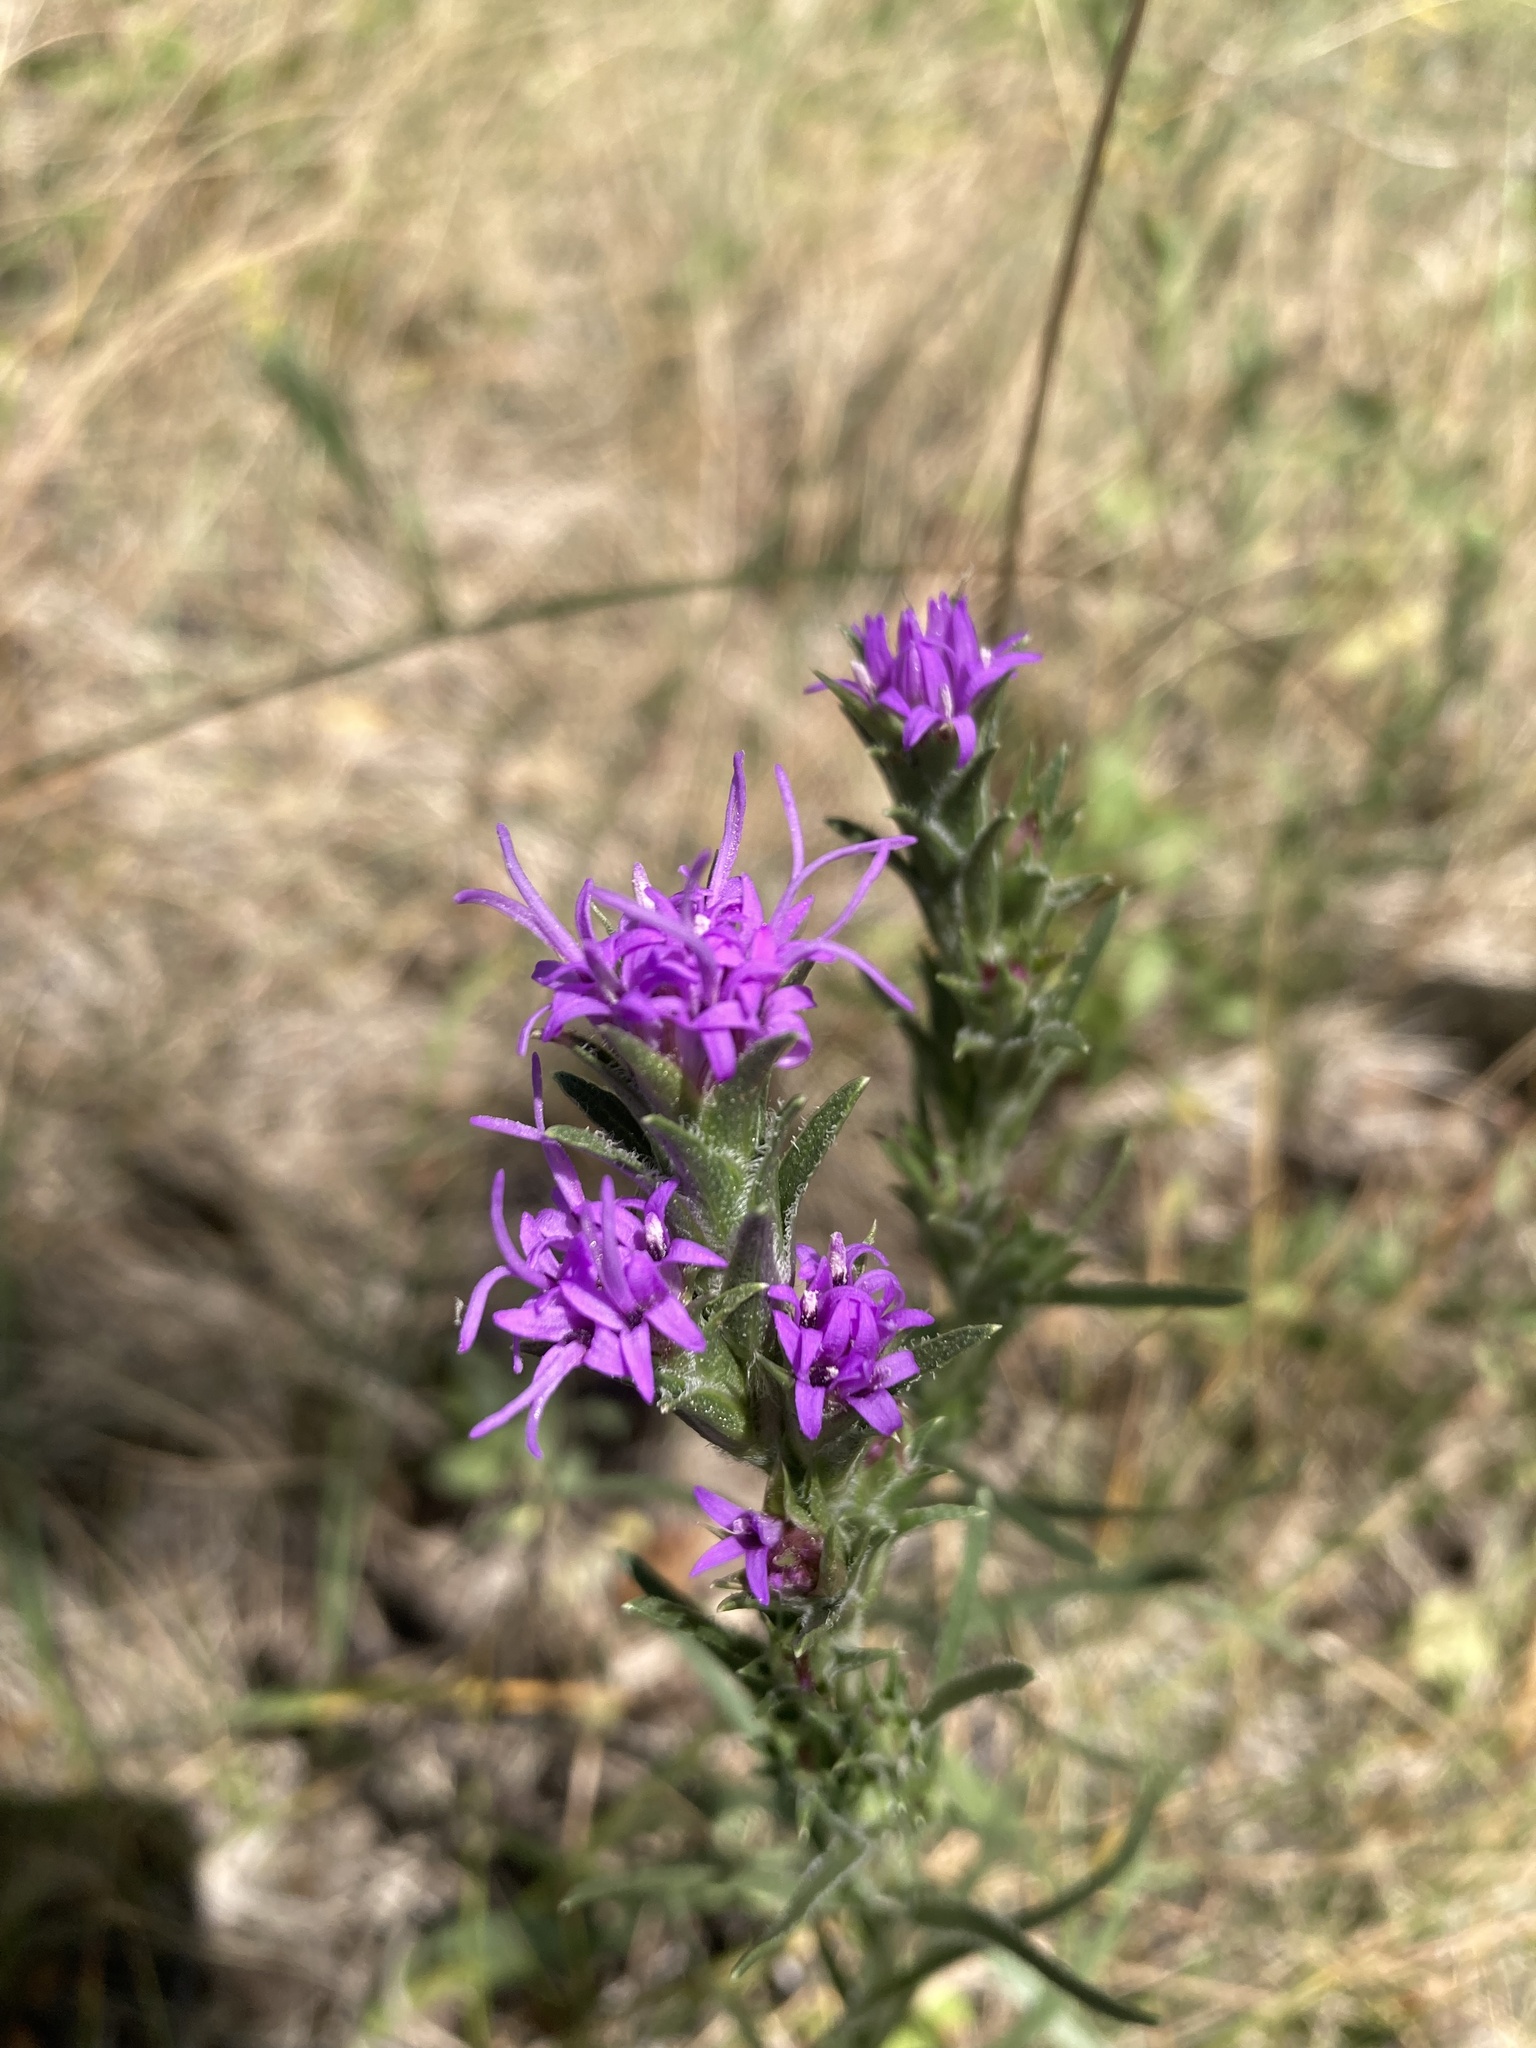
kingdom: Plantae
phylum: Tracheophyta
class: Magnoliopsida
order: Asterales
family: Asteraceae
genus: Liatris
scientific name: Liatris punctata
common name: Dotted gayfeather
